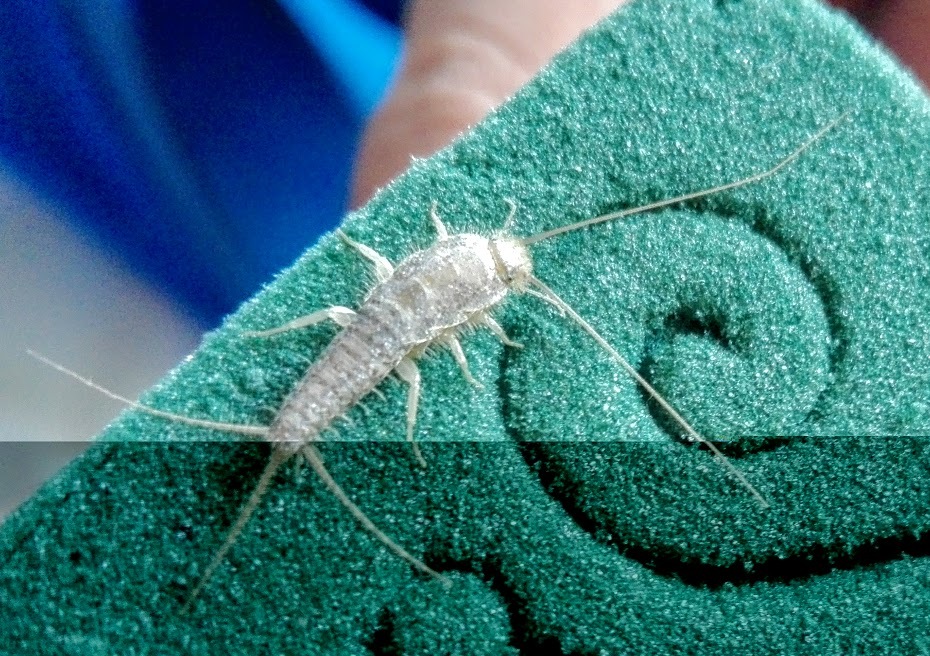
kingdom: Animalia
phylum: Arthropoda
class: Insecta
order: Zygentoma
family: Lepismatidae
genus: Ctenolepisma
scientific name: Ctenolepisma longicaudatum
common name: Silverfish
